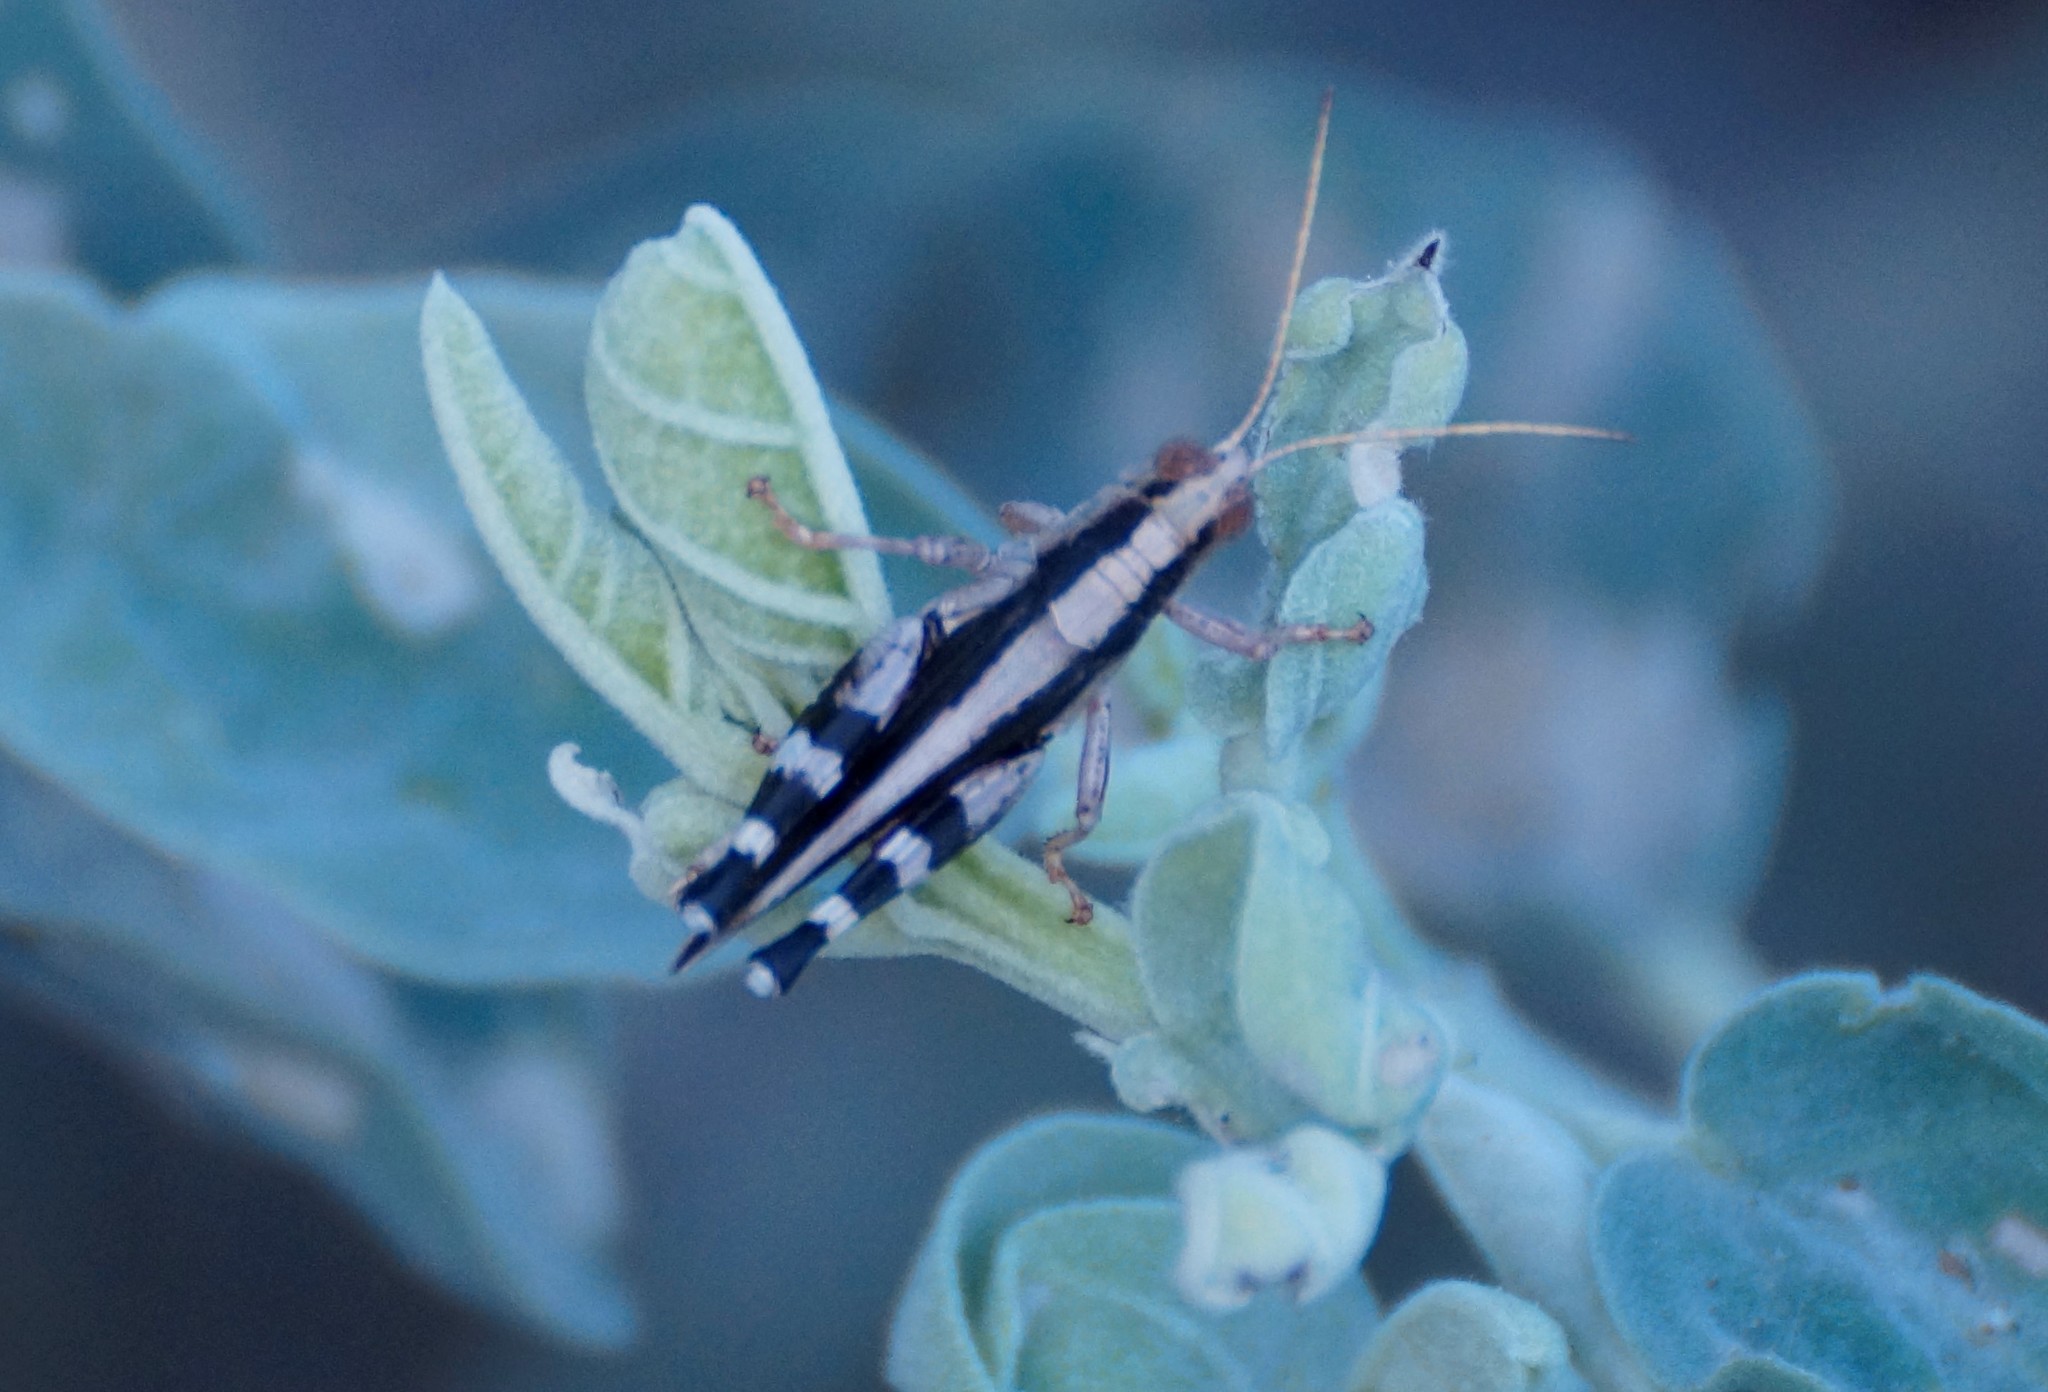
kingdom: Animalia
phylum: Arthropoda
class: Insecta
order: Orthoptera
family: Acrididae
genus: Terpillaria
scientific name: Terpillaria pulchra
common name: Pretty terpillaria
